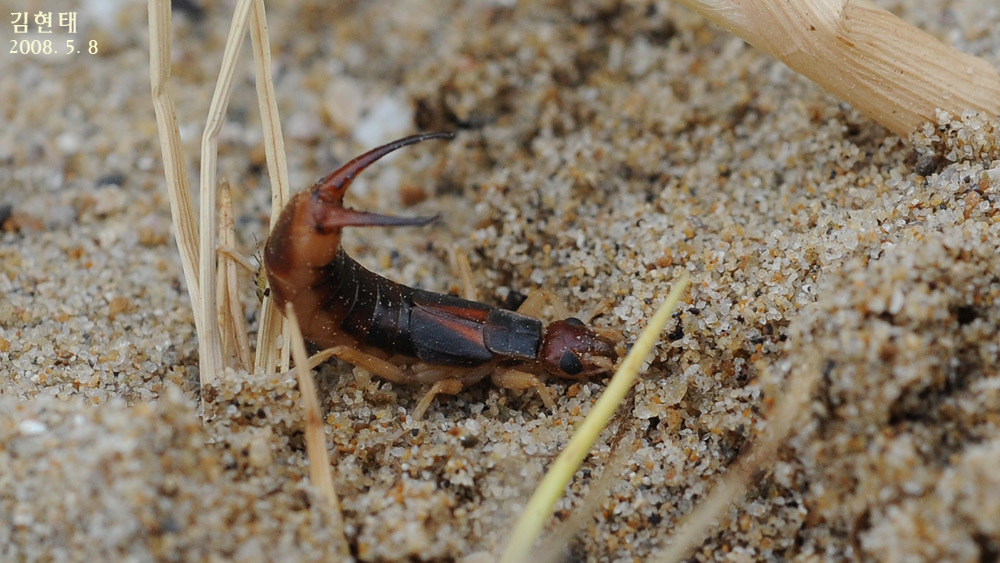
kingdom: Animalia
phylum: Arthropoda
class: Insecta
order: Dermaptera
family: Labiduridae
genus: Labidura
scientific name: Labidura riparia
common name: Striped earwig
